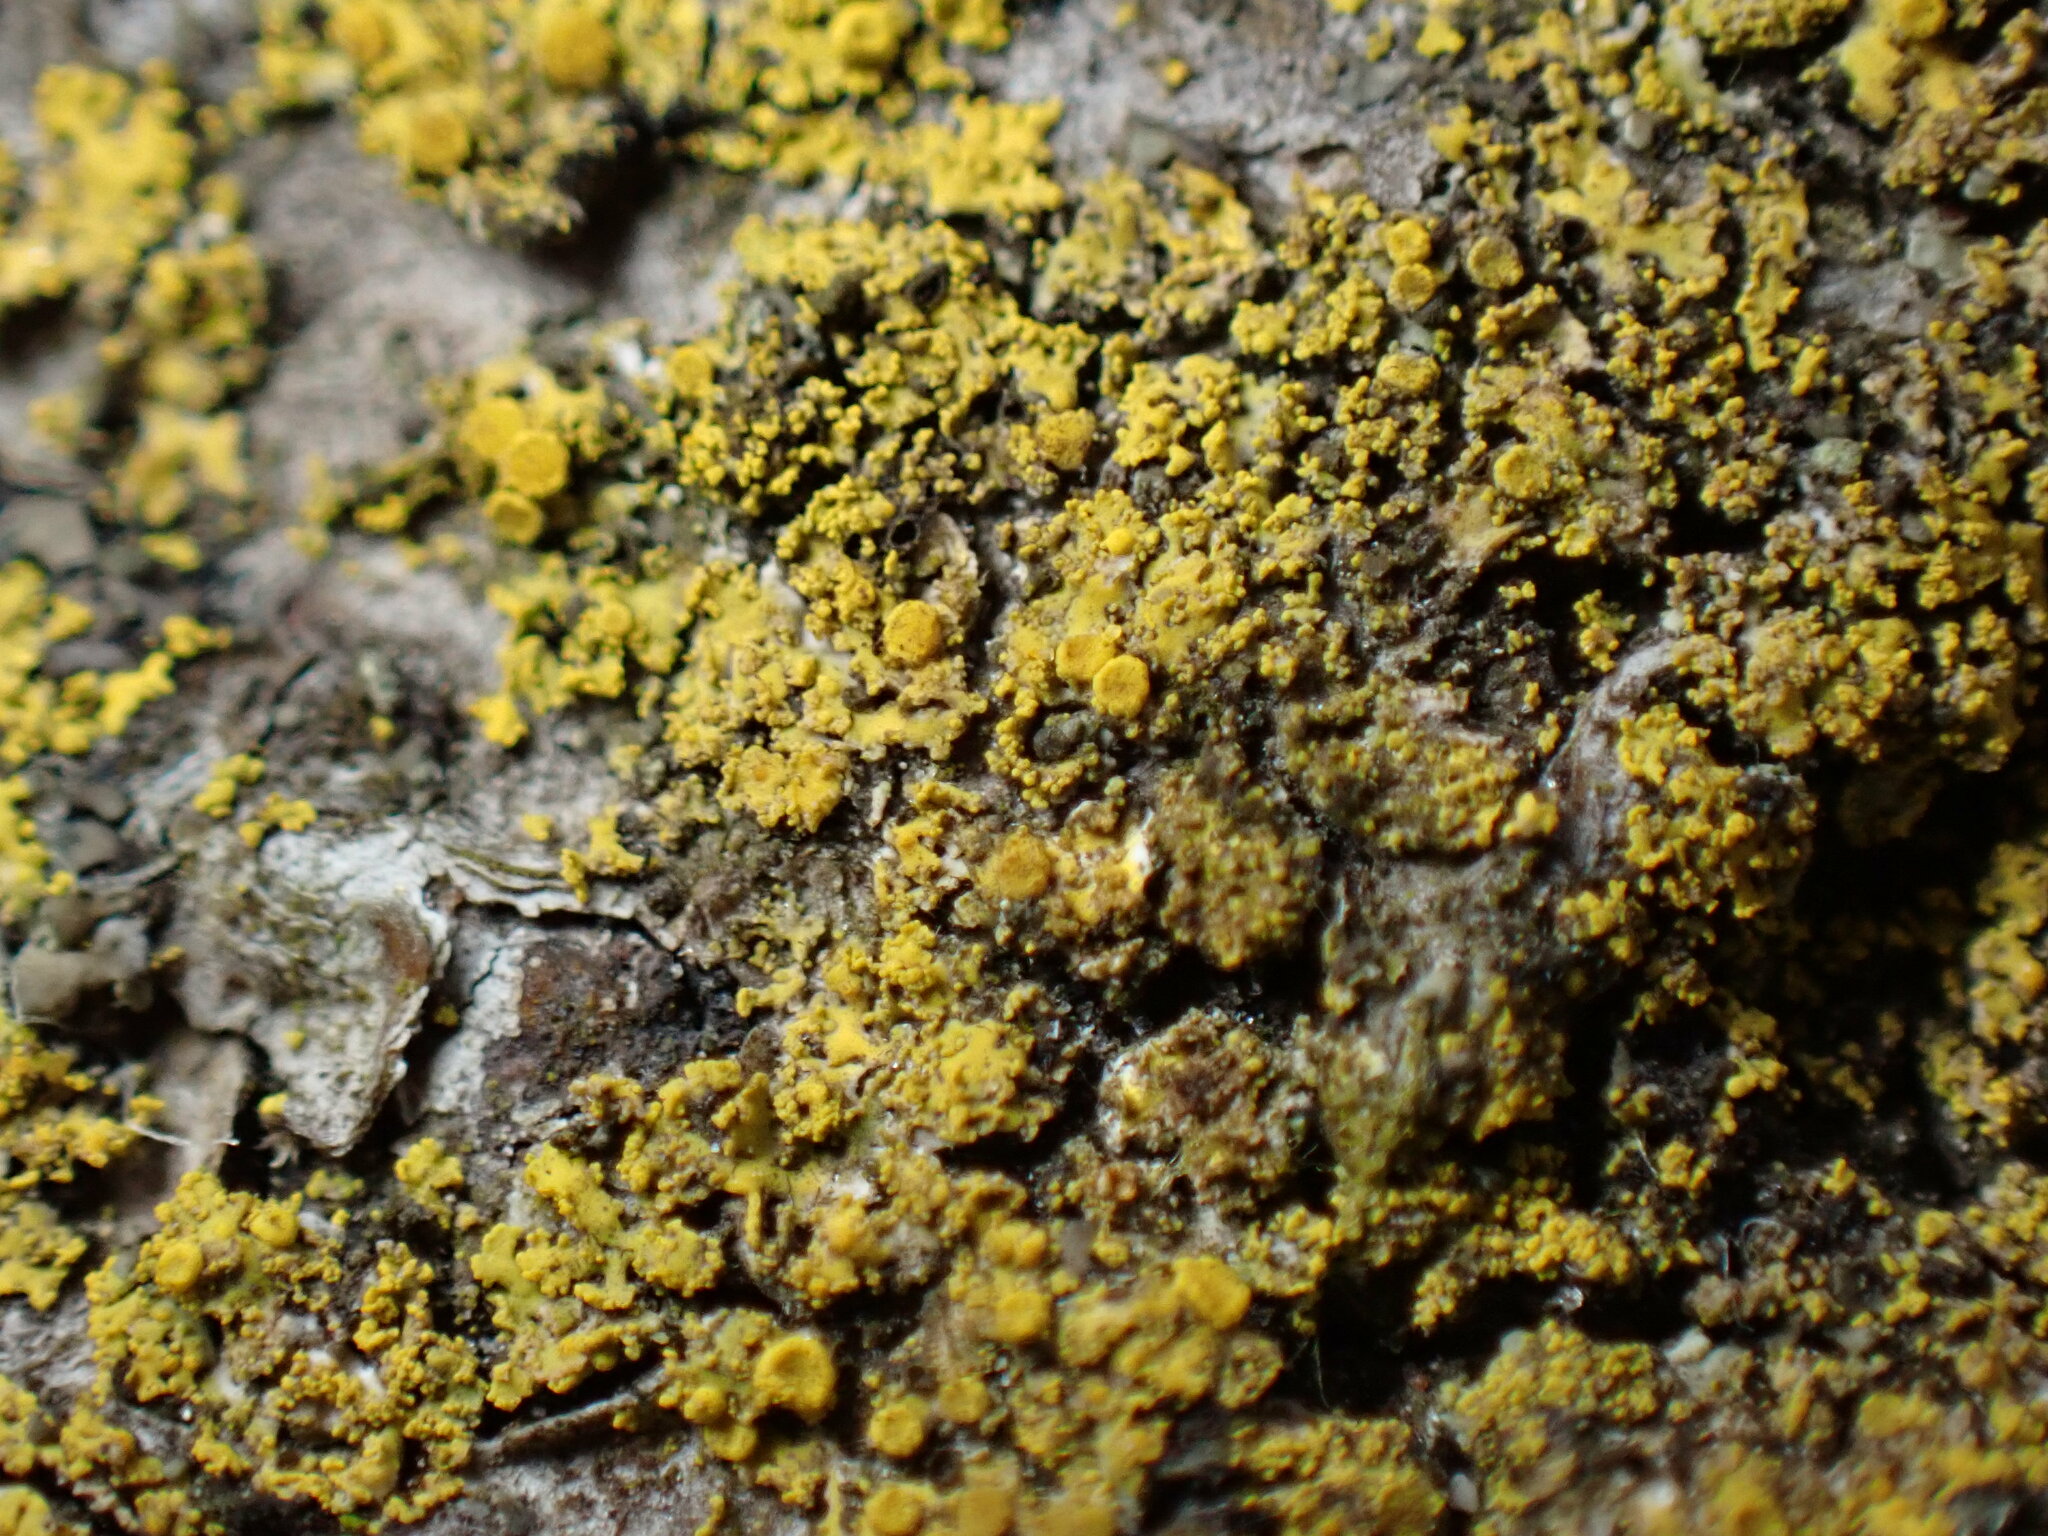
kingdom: Fungi
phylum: Ascomycota
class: Candelariomycetes
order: Candelariales
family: Candelariaceae
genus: Candelaria
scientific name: Candelaria concolor
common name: Candleflame lichen
